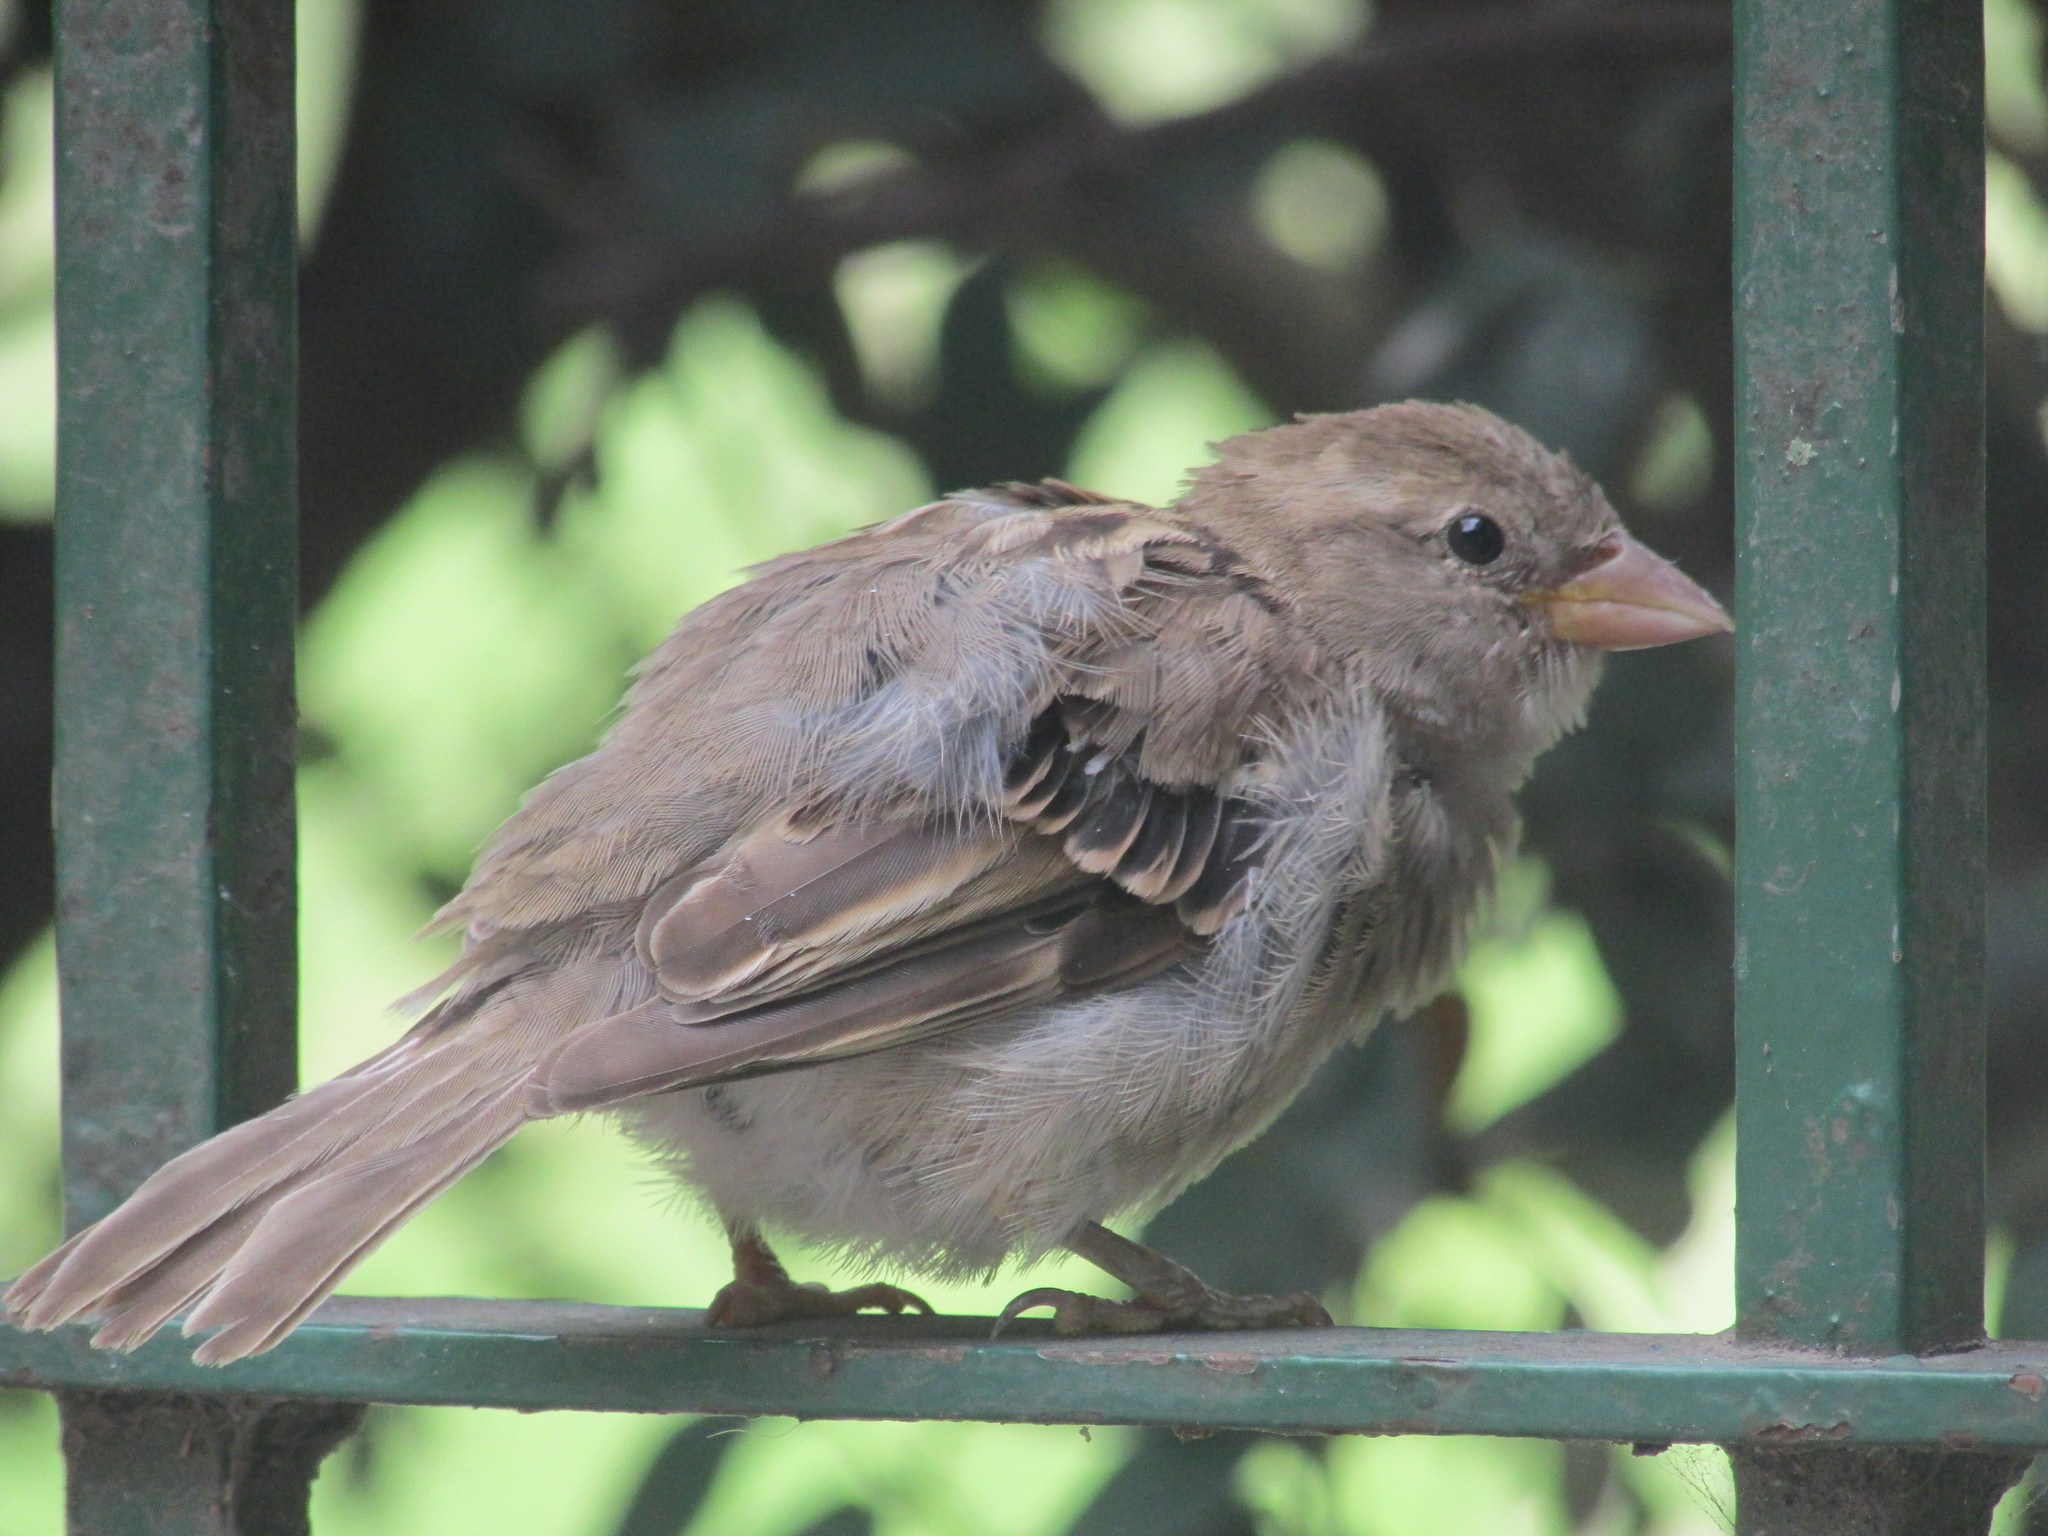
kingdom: Animalia
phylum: Chordata
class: Aves
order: Passeriformes
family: Passeridae
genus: Passer
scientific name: Passer domesticus
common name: House sparrow
